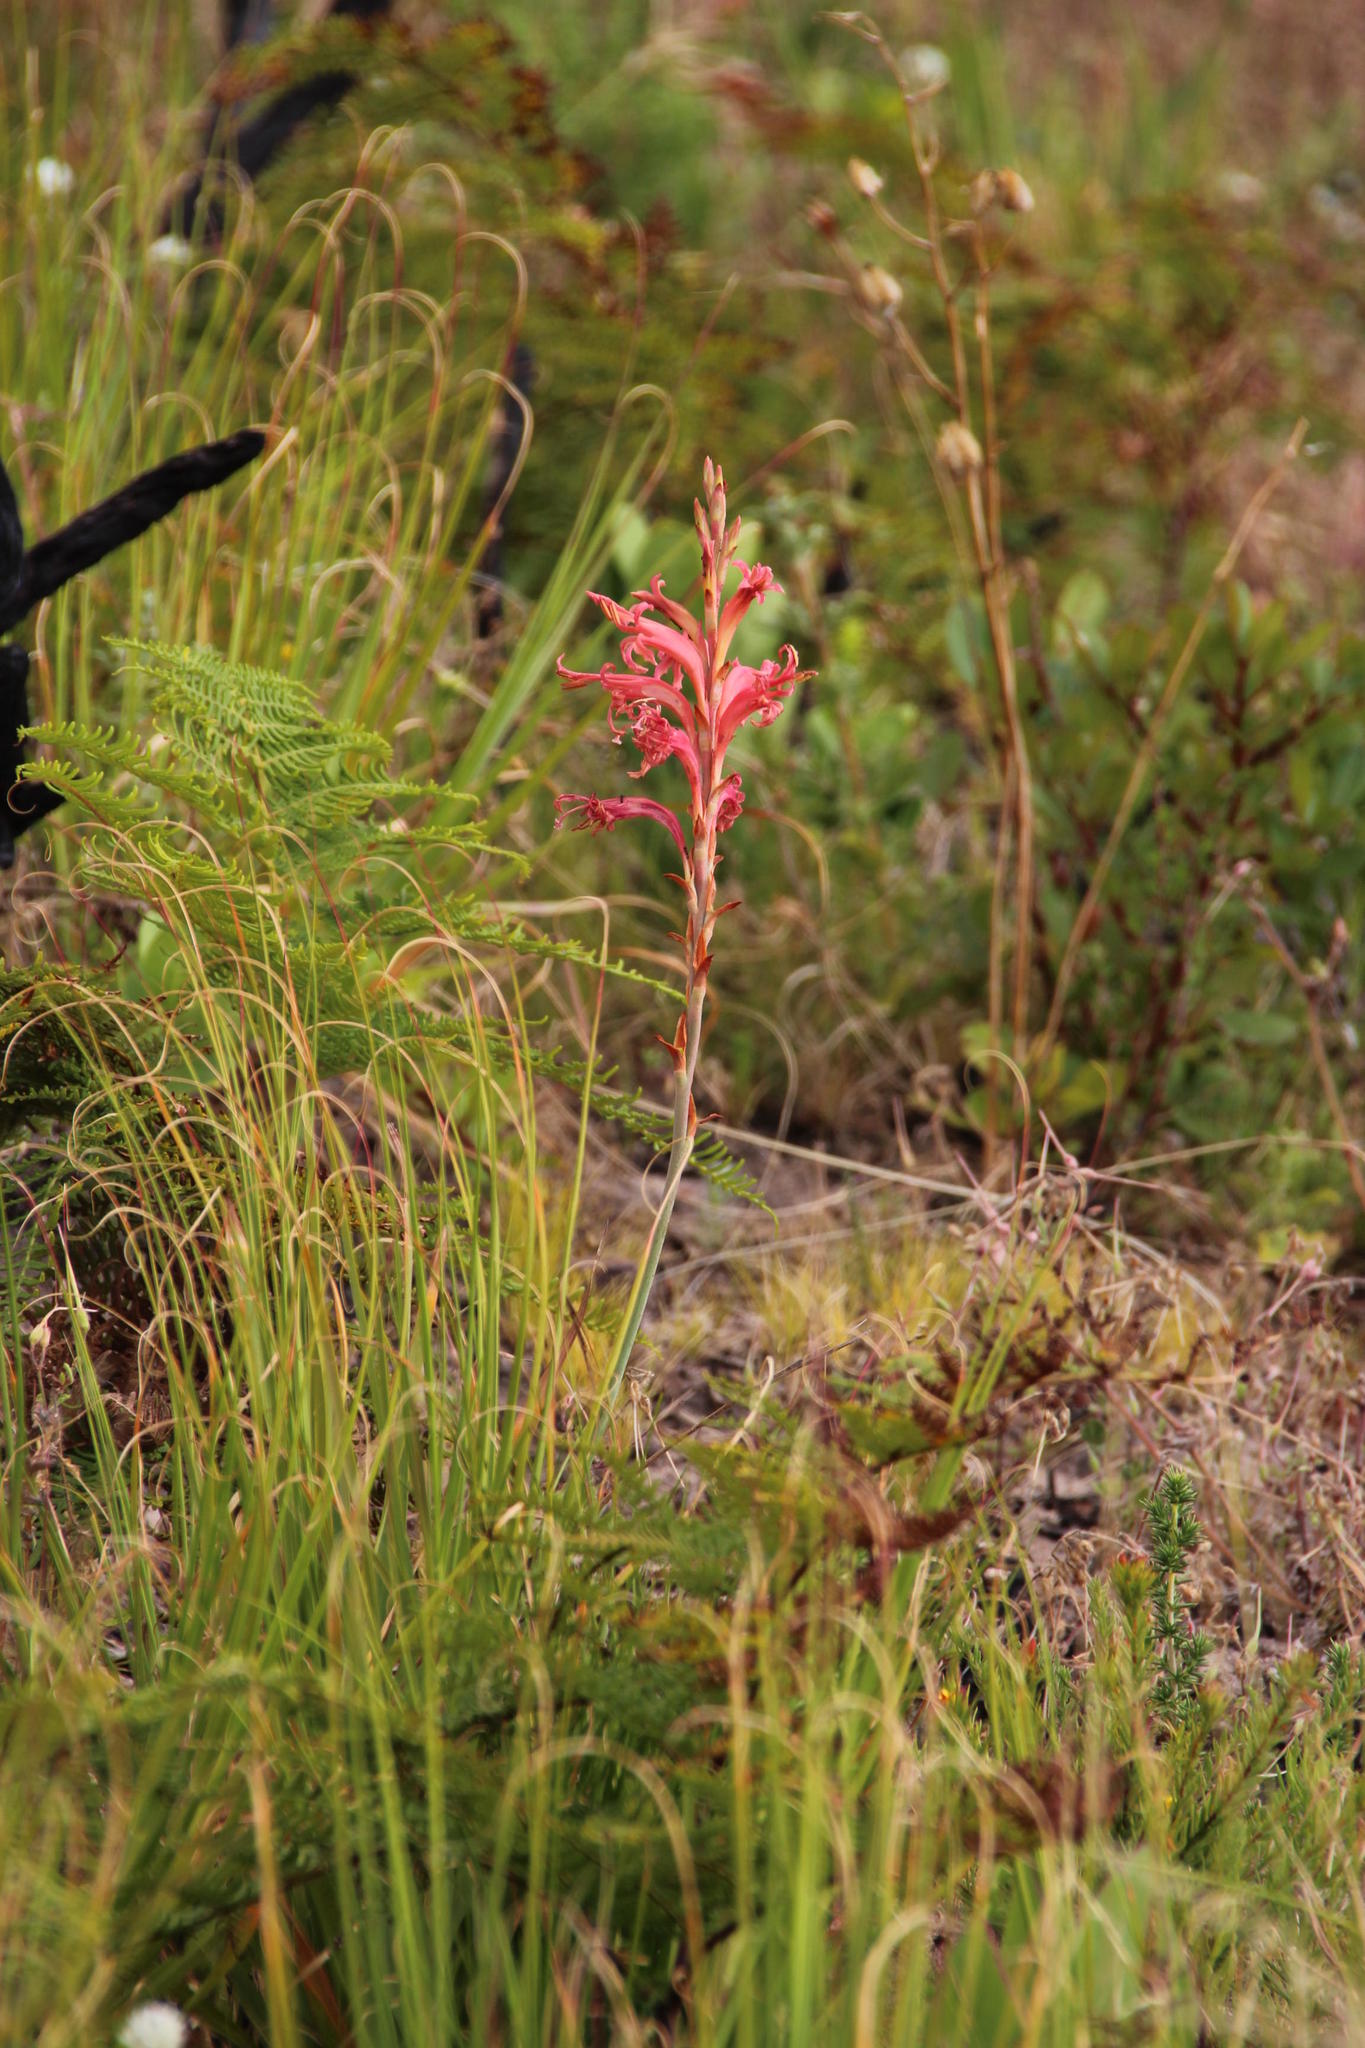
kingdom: Plantae
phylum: Tracheophyta
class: Liliopsida
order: Asparagales
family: Iridaceae
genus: Tritoniopsis
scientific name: Tritoniopsis antholyza
